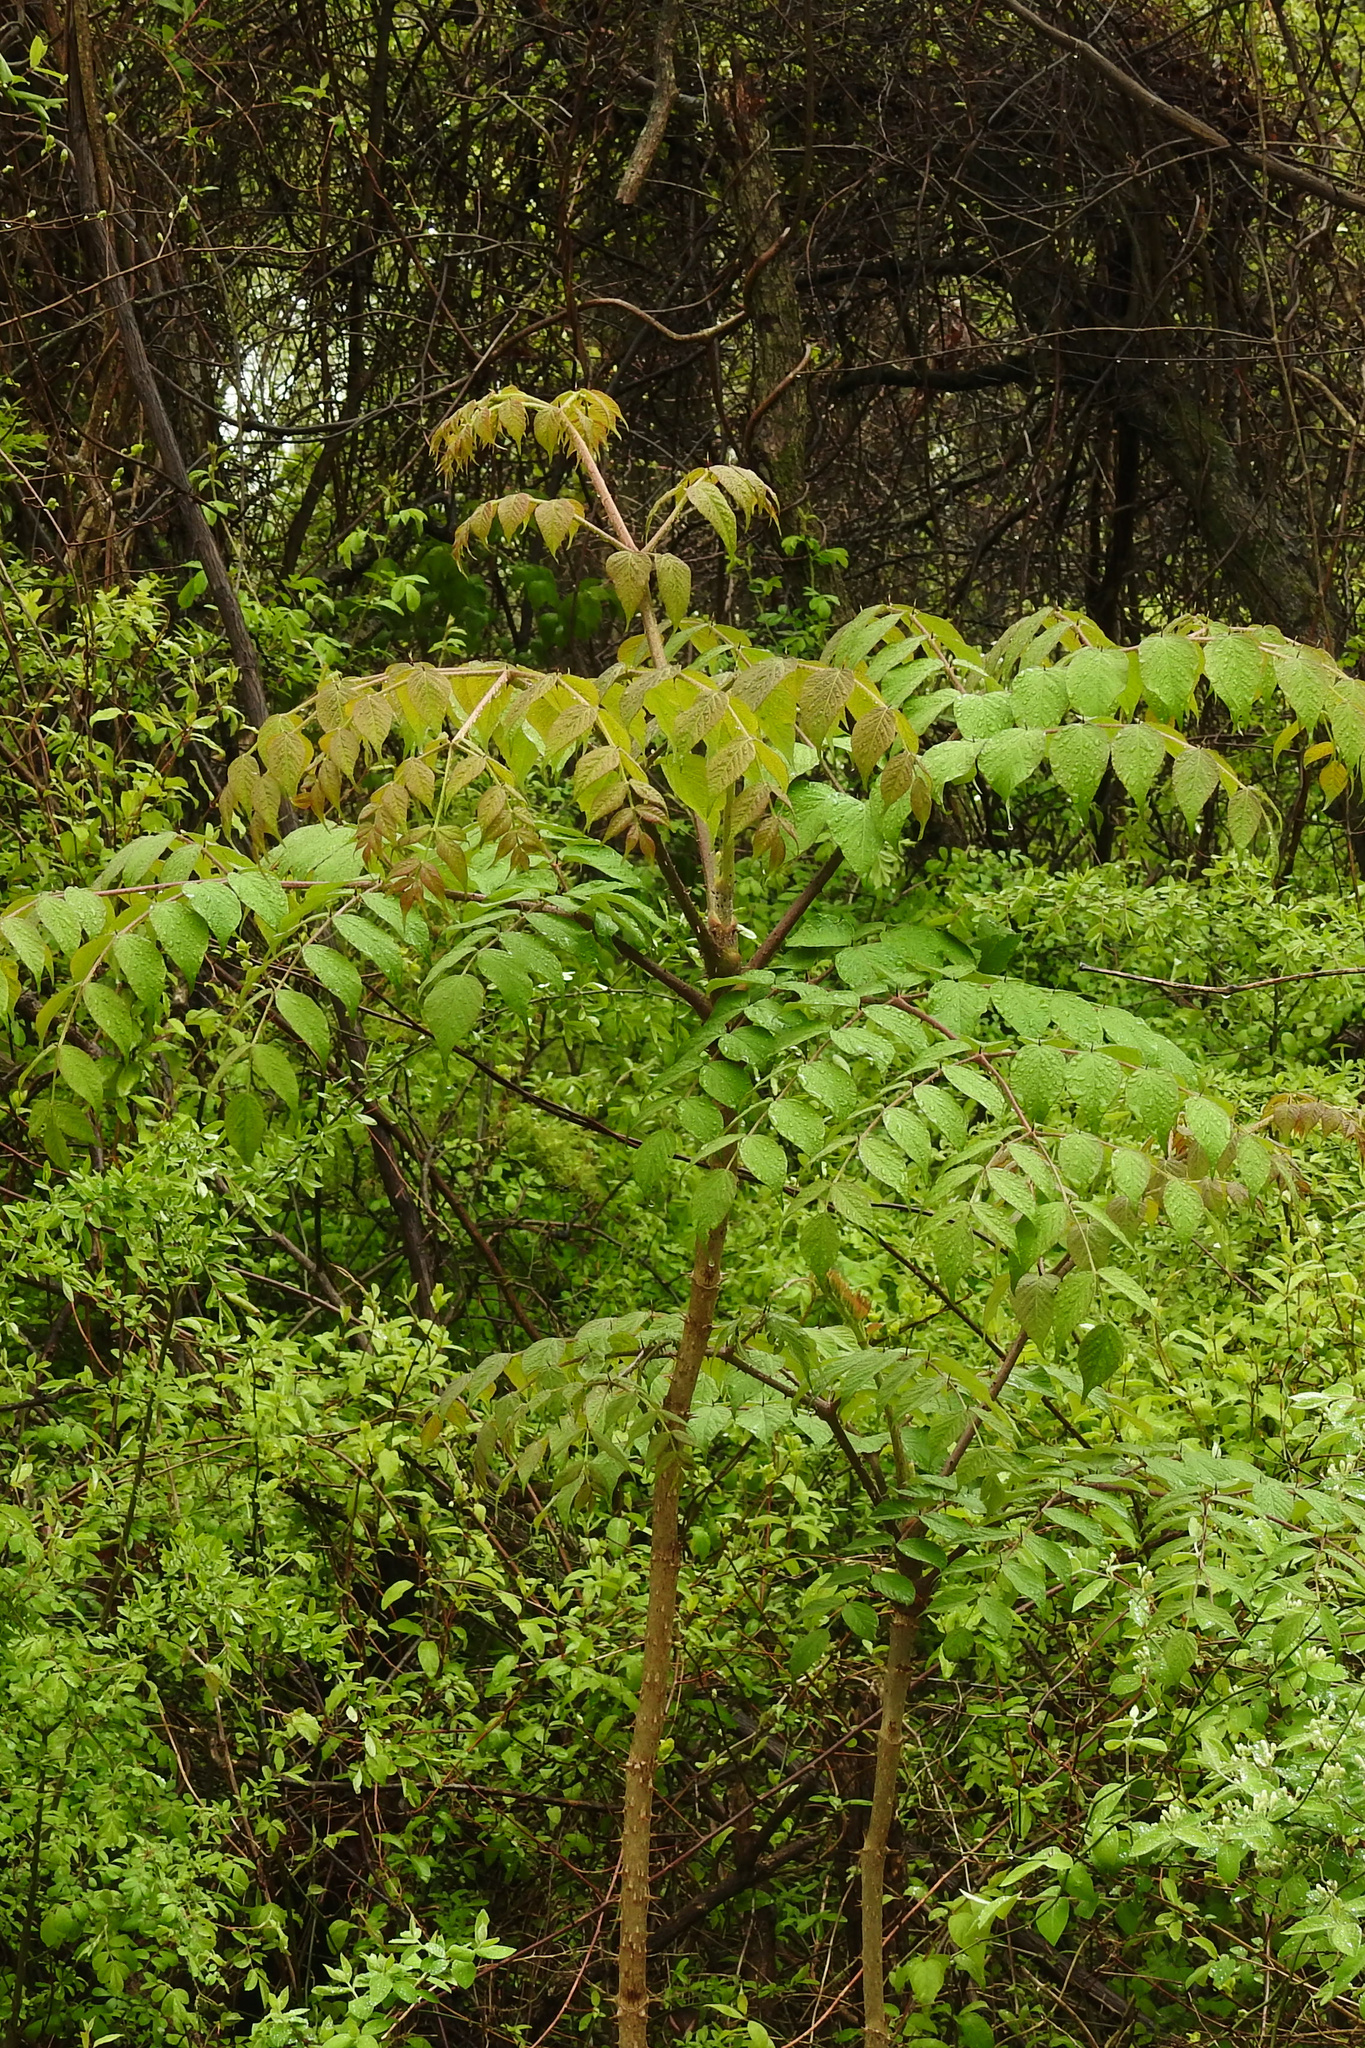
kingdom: Plantae
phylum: Tracheophyta
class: Magnoliopsida
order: Apiales
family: Araliaceae
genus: Aralia
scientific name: Aralia elata
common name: Japanese angelica-tree
